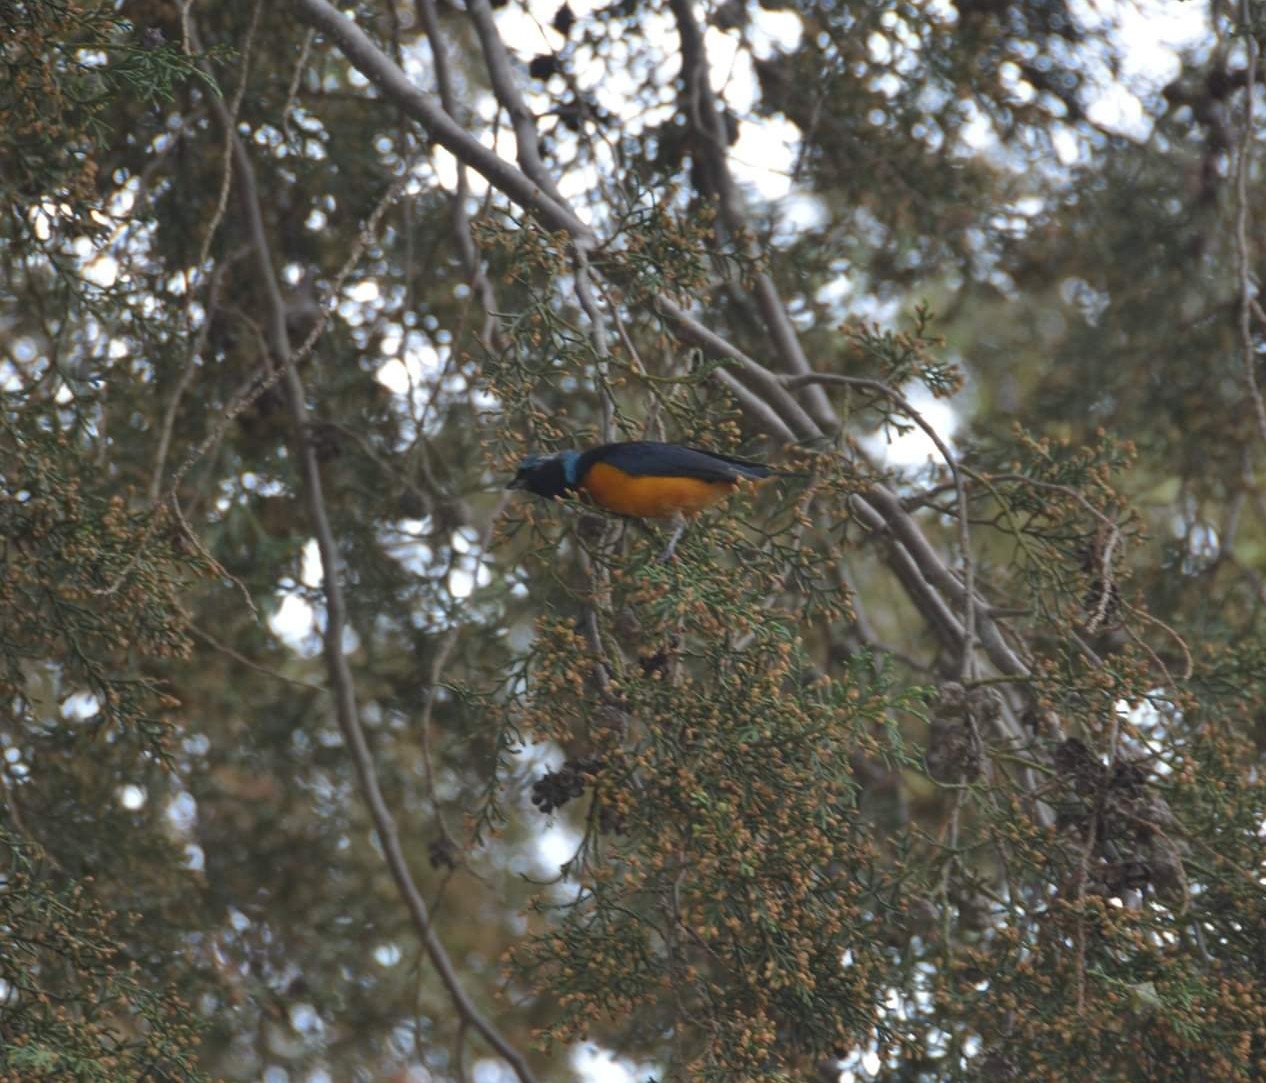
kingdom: Animalia
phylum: Chordata
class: Aves
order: Passeriformes
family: Fringillidae
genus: Euphonia
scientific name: Euphonia elegantissima
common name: Elegant euphonia
